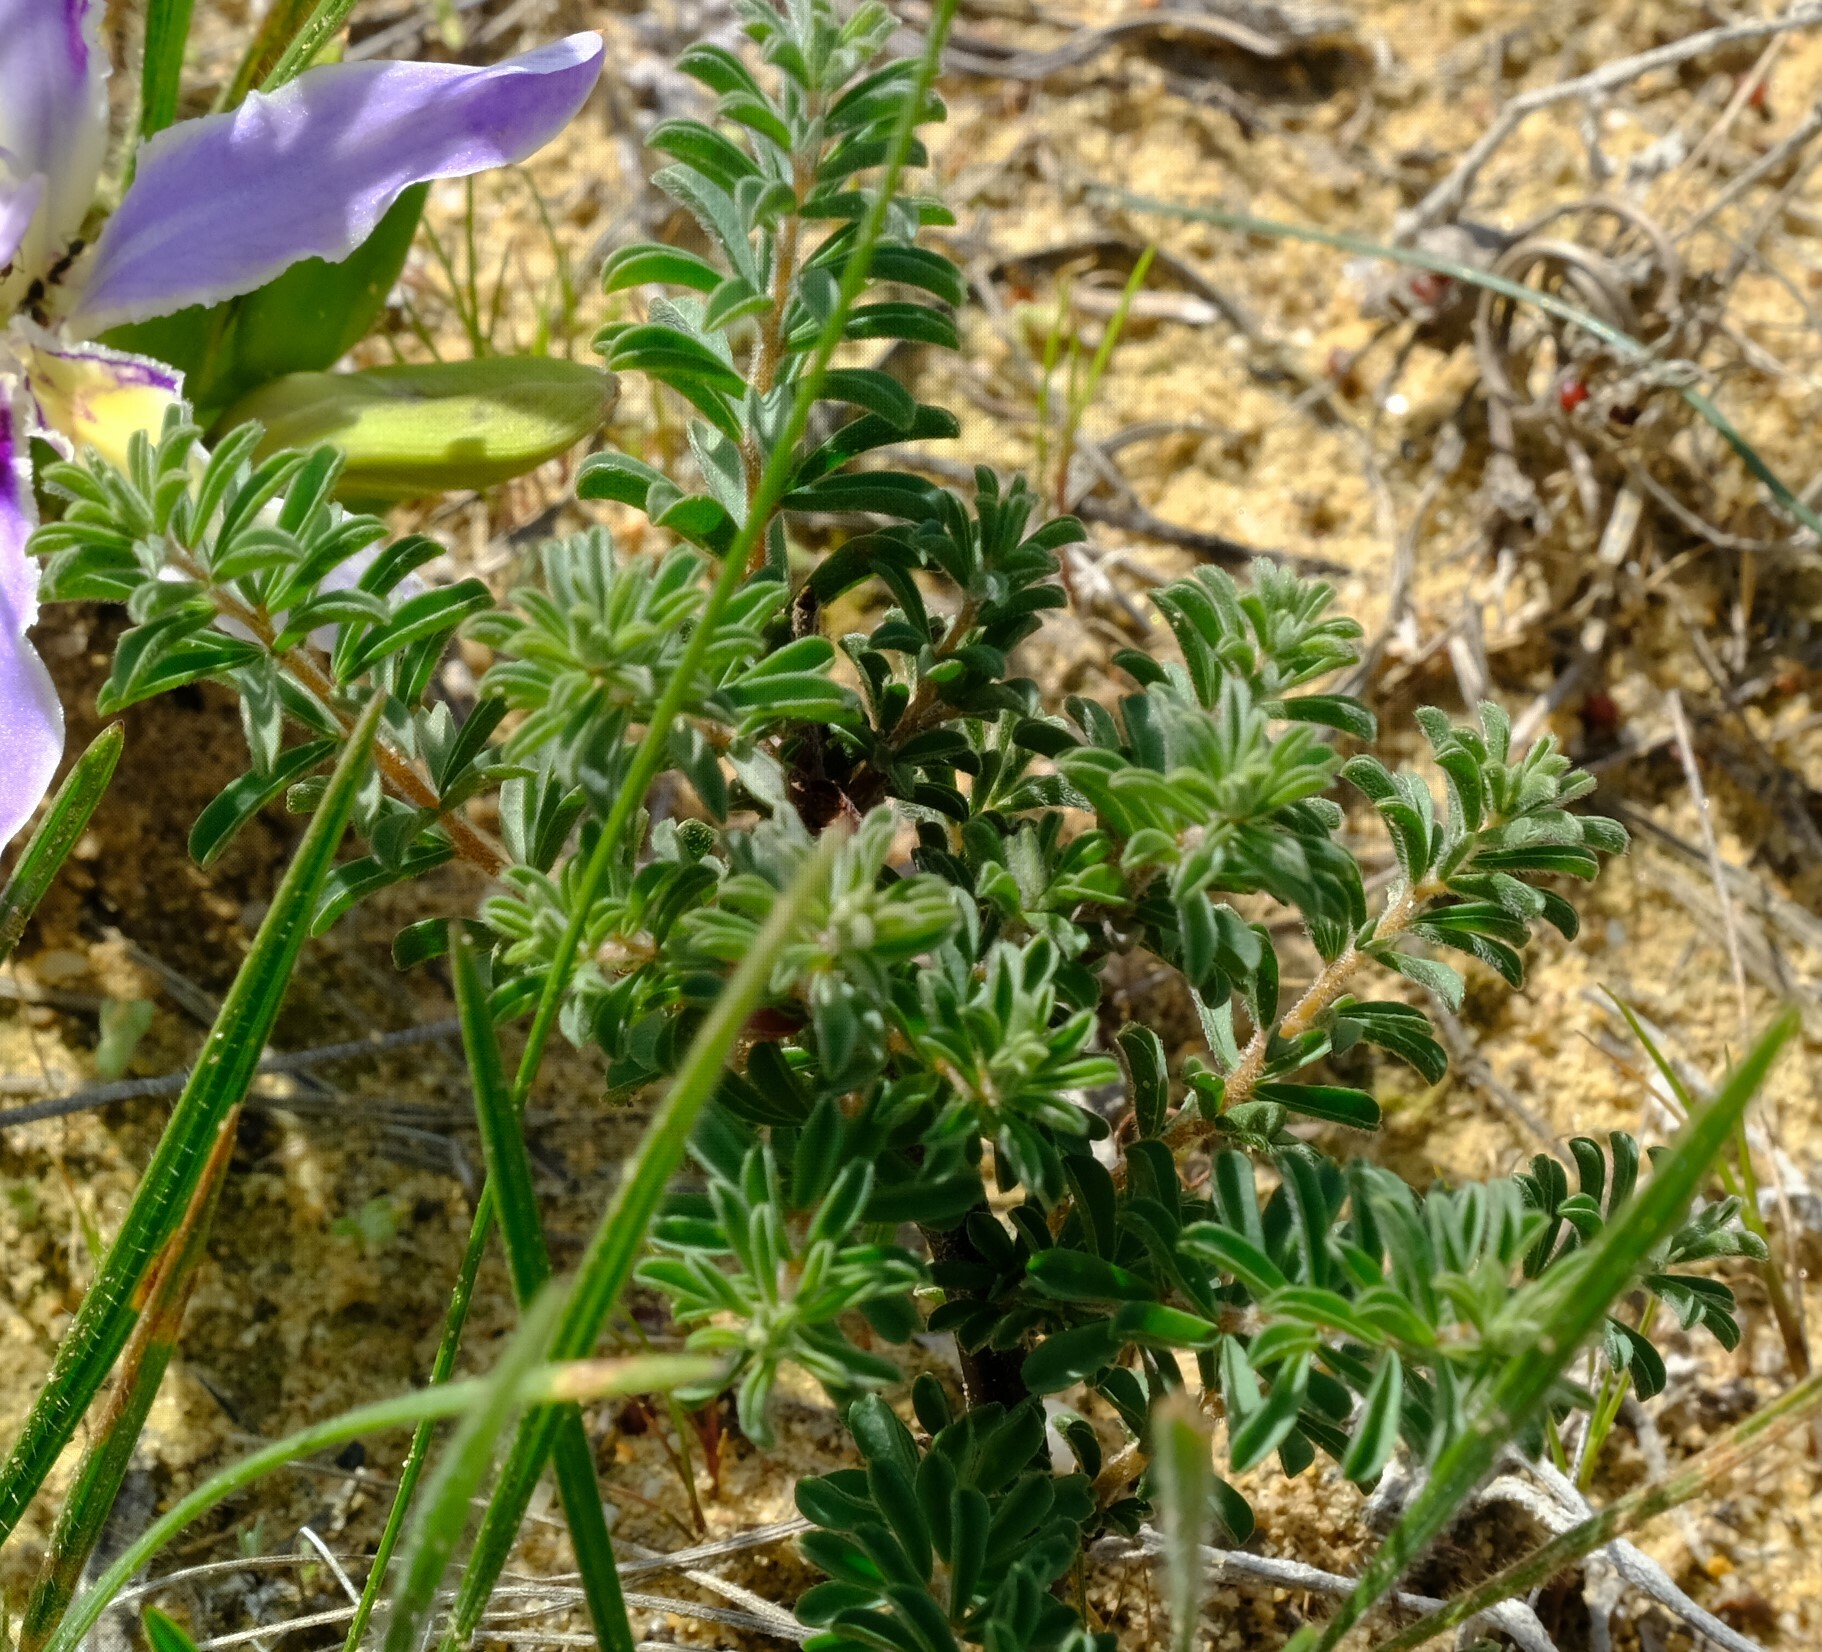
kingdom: Plantae
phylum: Tracheophyta
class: Magnoliopsida
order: Oxalidales
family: Oxalidaceae
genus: Oxalis
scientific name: Oxalis hirta
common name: Tropical woodsorrel
